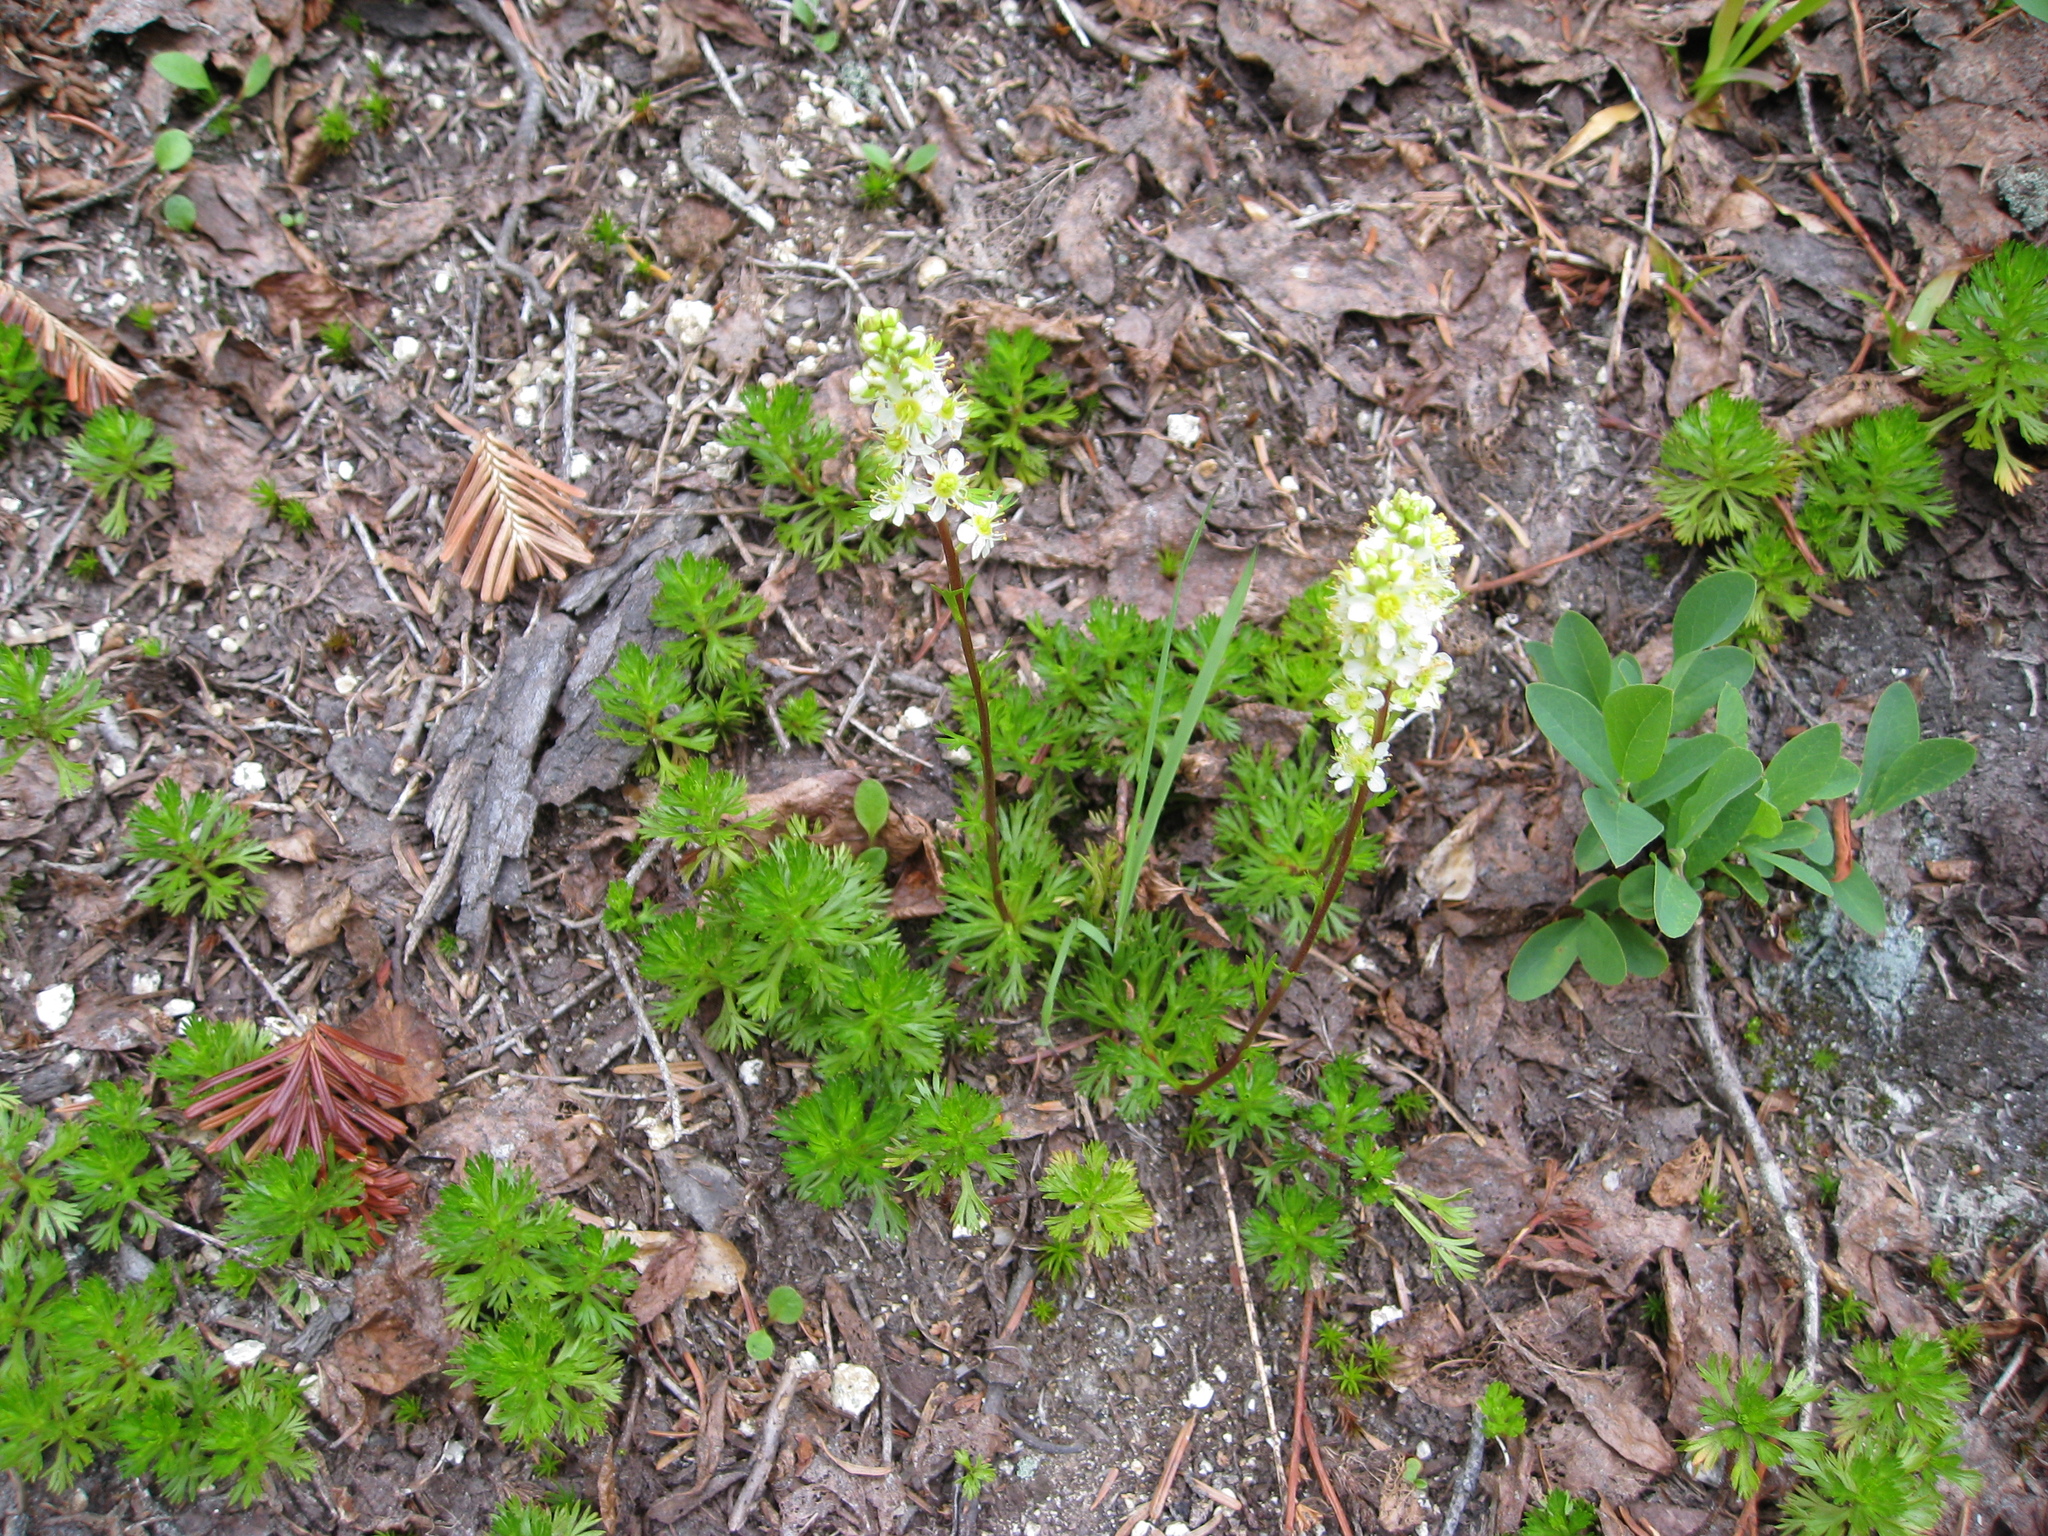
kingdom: Plantae
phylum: Tracheophyta
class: Magnoliopsida
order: Rosales
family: Rosaceae
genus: Luetkea
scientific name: Luetkea pectinata
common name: Partridgefoot
